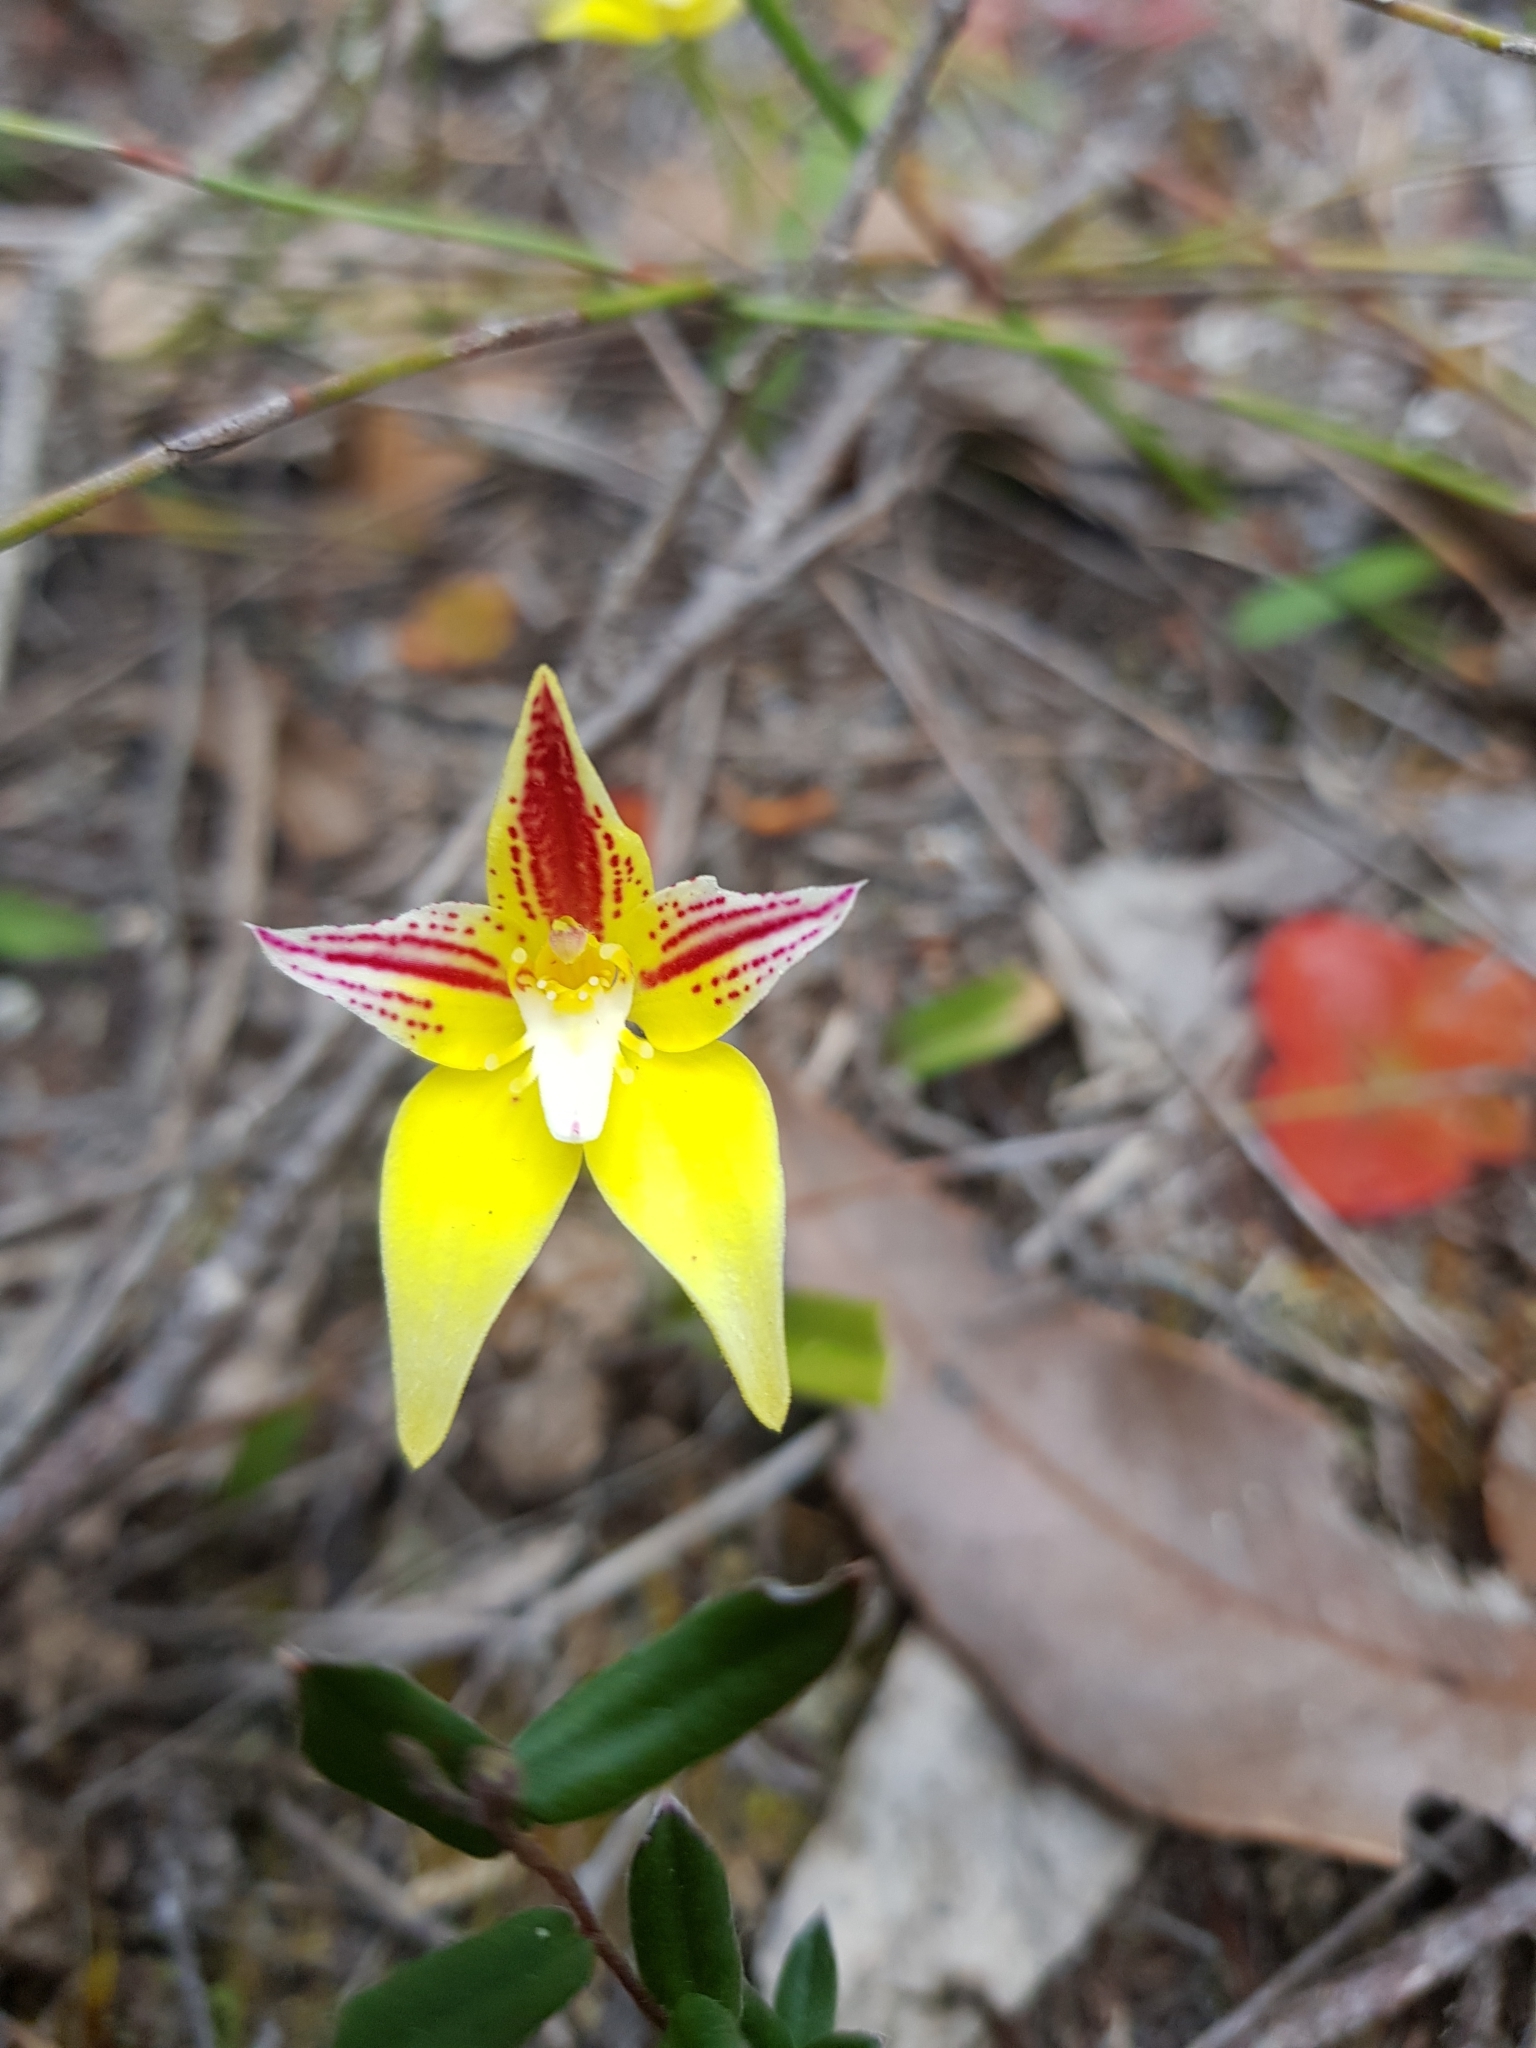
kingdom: Plantae
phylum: Tracheophyta
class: Liliopsida
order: Asparagales
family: Orchidaceae
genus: Caladenia
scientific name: Caladenia flava
